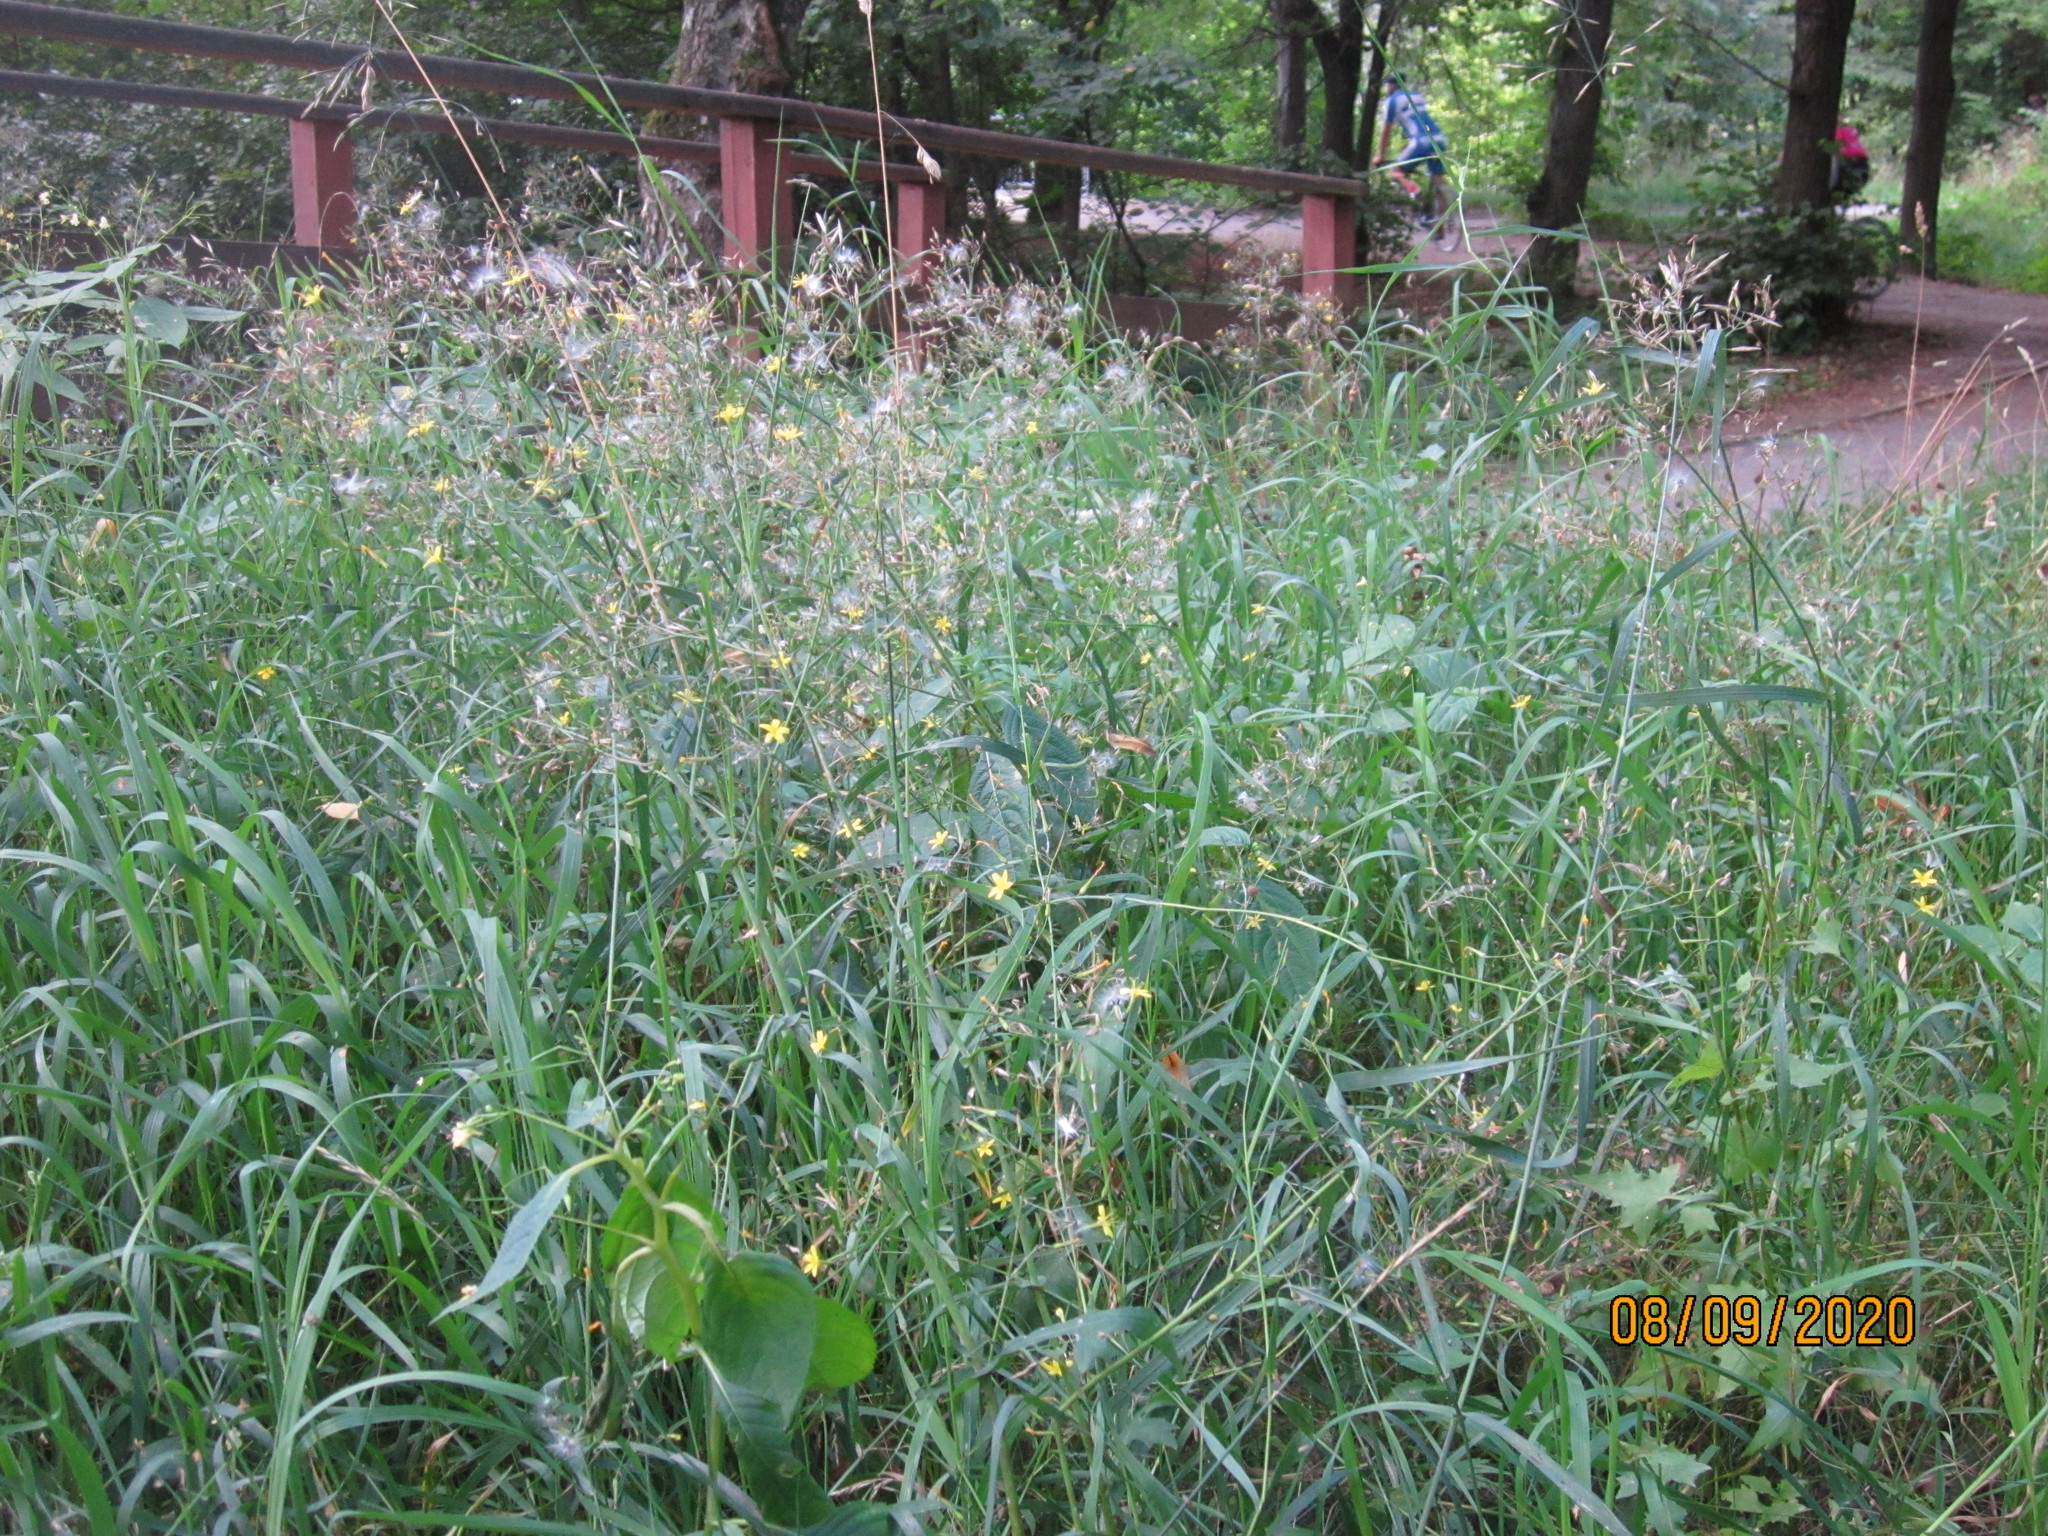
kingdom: Plantae
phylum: Tracheophyta
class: Magnoliopsida
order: Asterales
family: Asteraceae
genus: Mycelis
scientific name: Mycelis muralis
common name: Wall lettuce
